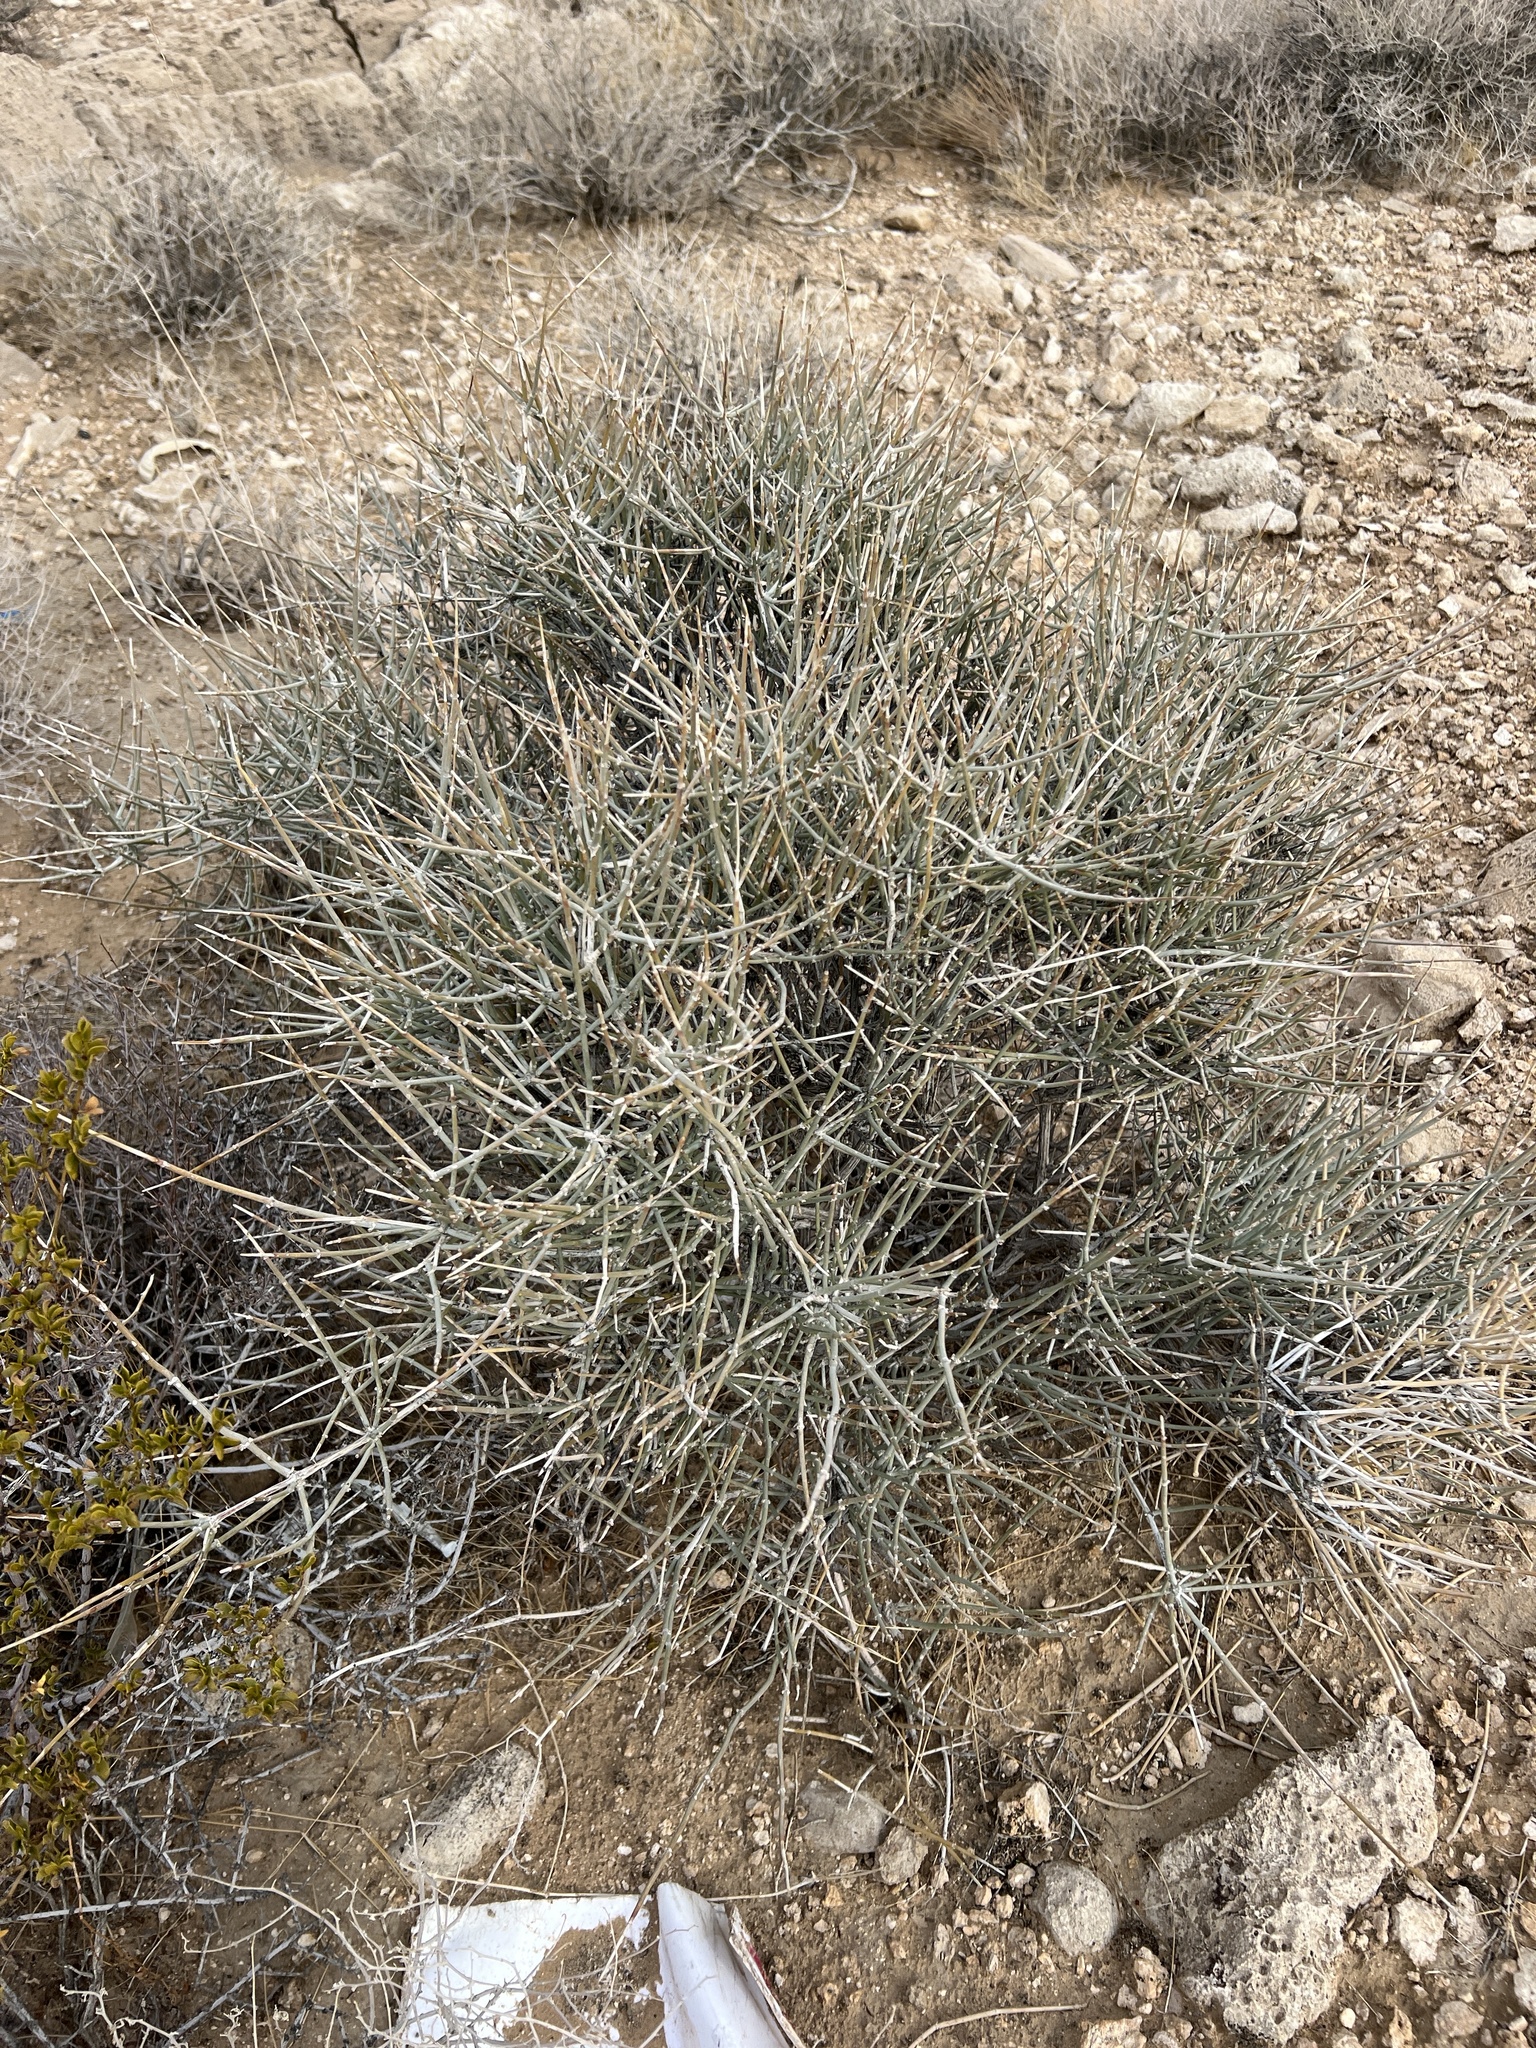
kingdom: Plantae
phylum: Tracheophyta
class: Gnetopsida
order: Ephedrales
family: Ephedraceae
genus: Ephedra
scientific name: Ephedra nevadensis
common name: Gray ephedra
